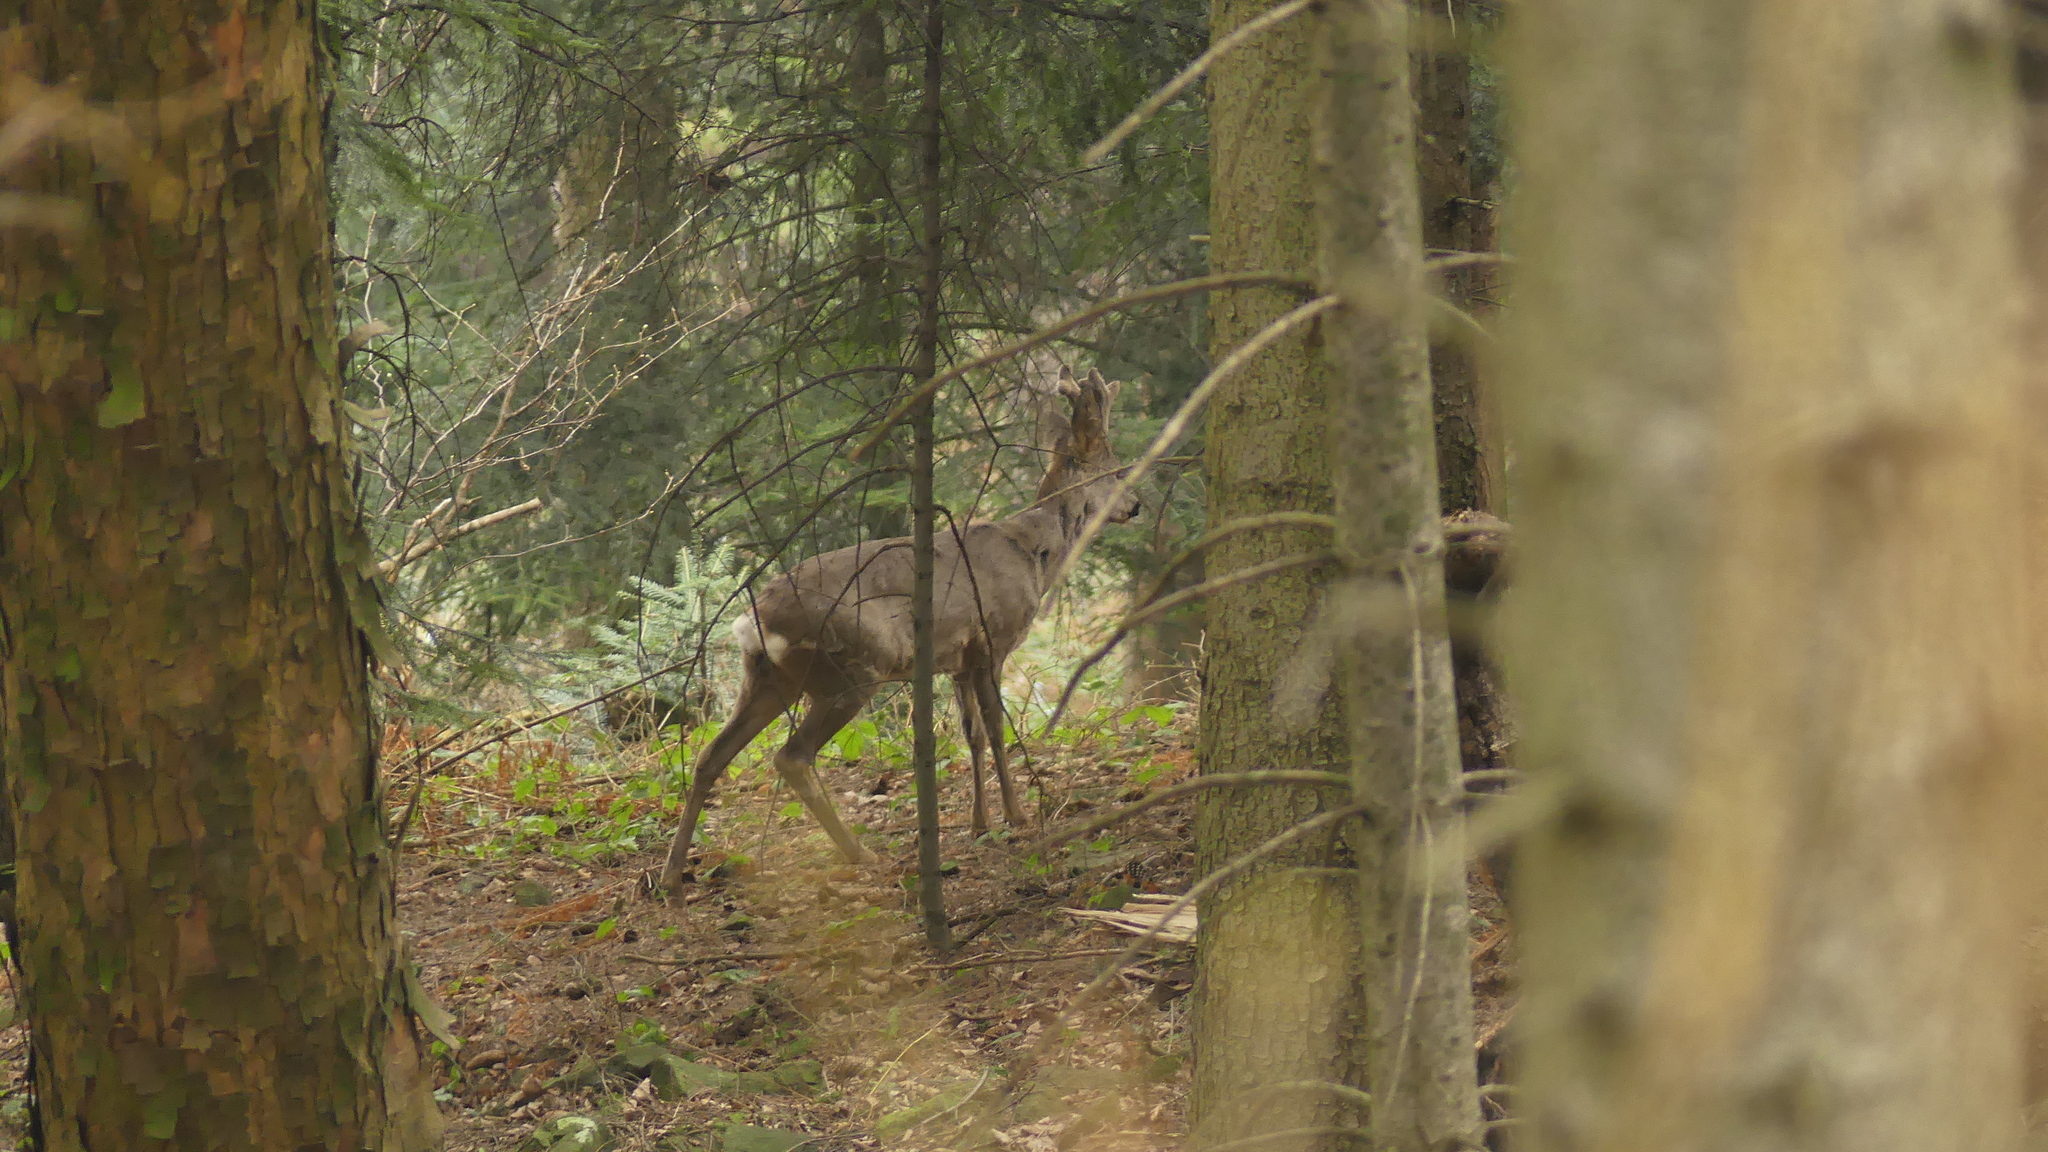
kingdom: Animalia
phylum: Chordata
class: Mammalia
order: Artiodactyla
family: Cervidae
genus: Capreolus
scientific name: Capreolus capreolus
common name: Western roe deer
